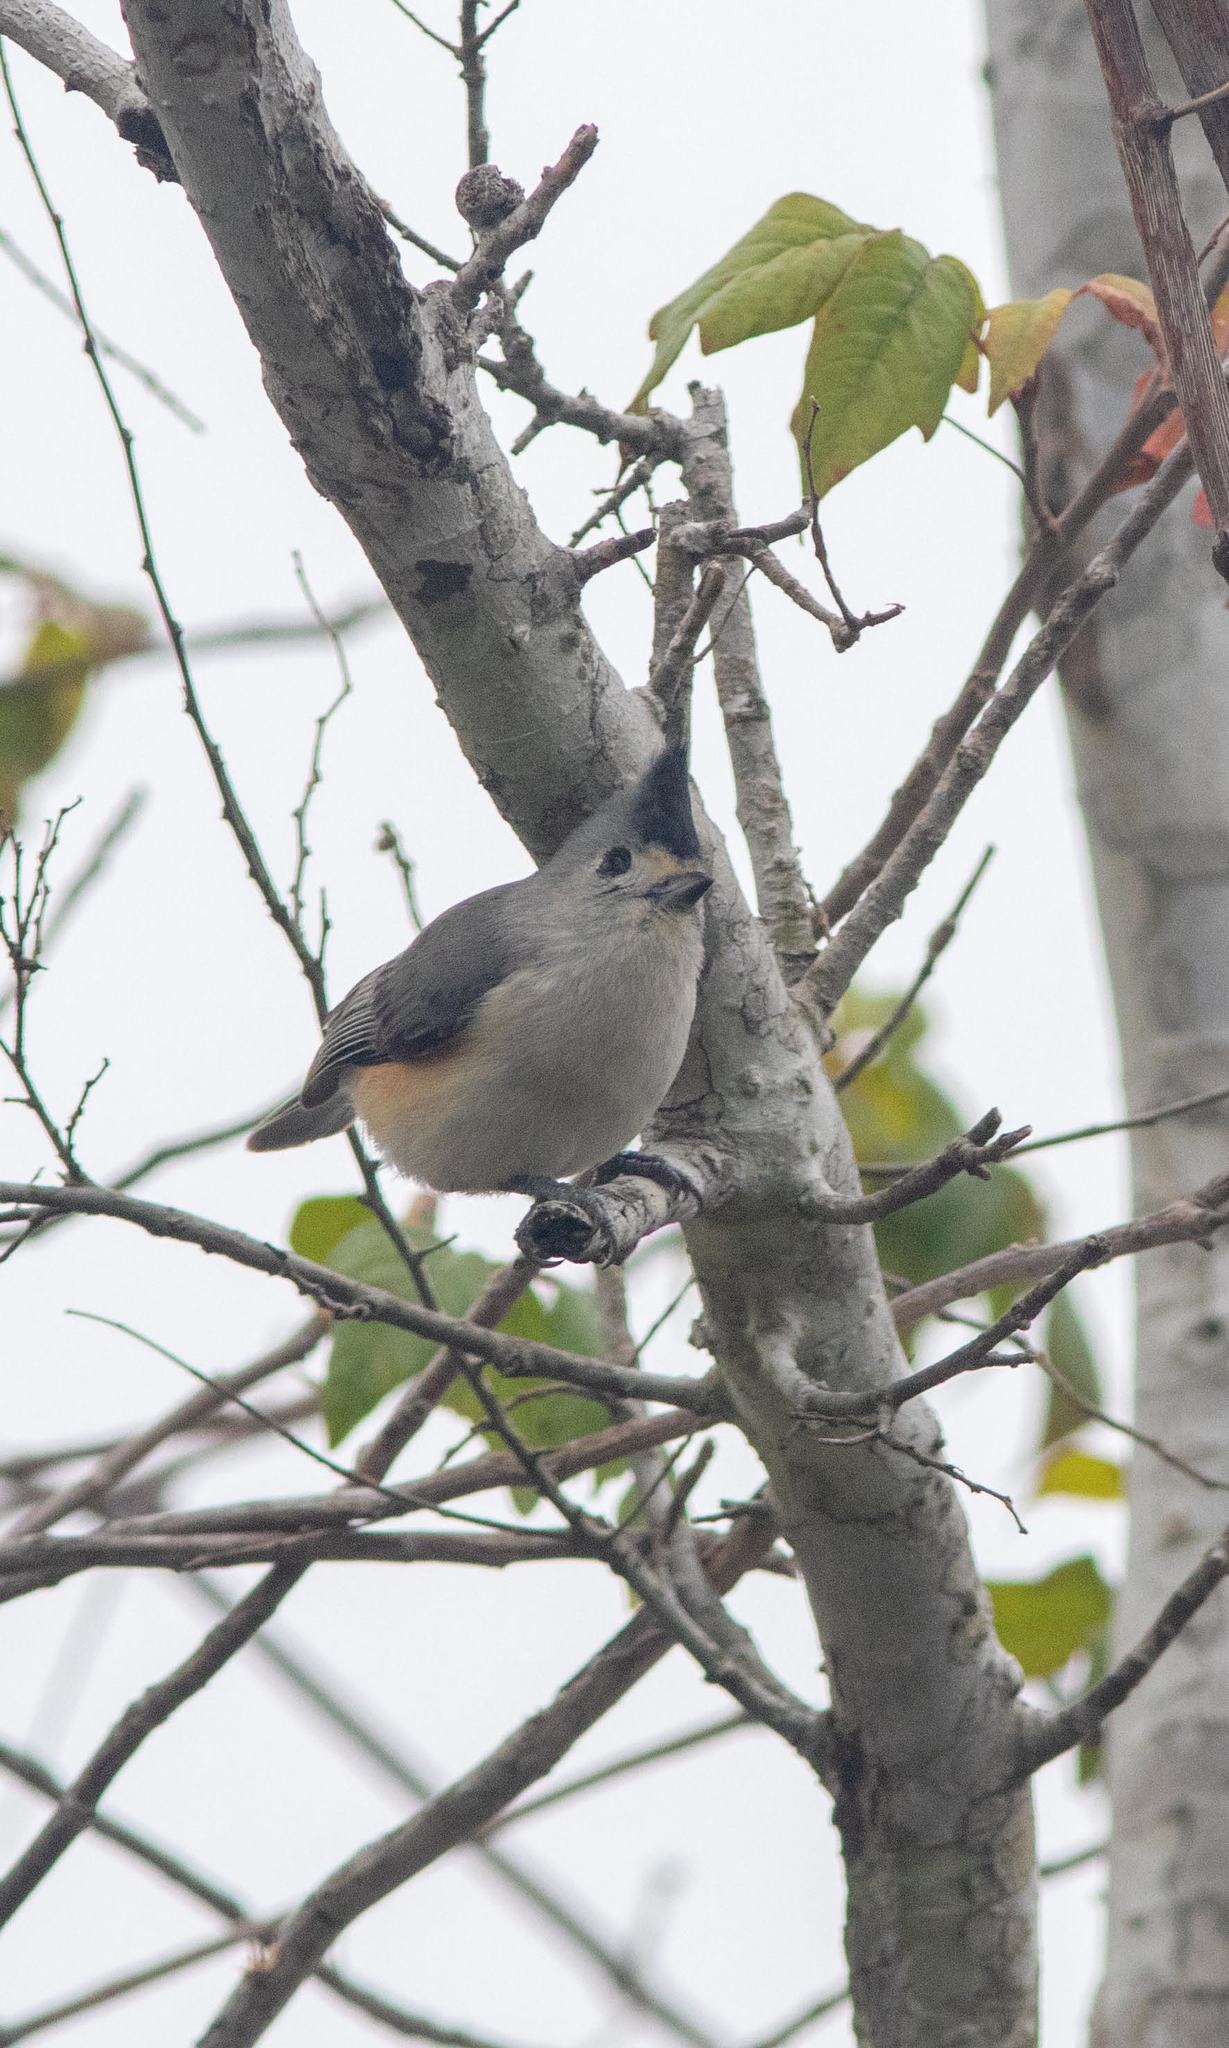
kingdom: Animalia
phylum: Chordata
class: Aves
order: Passeriformes
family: Paridae
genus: Baeolophus
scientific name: Baeolophus atricristatus
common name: Black-crested titmouse
